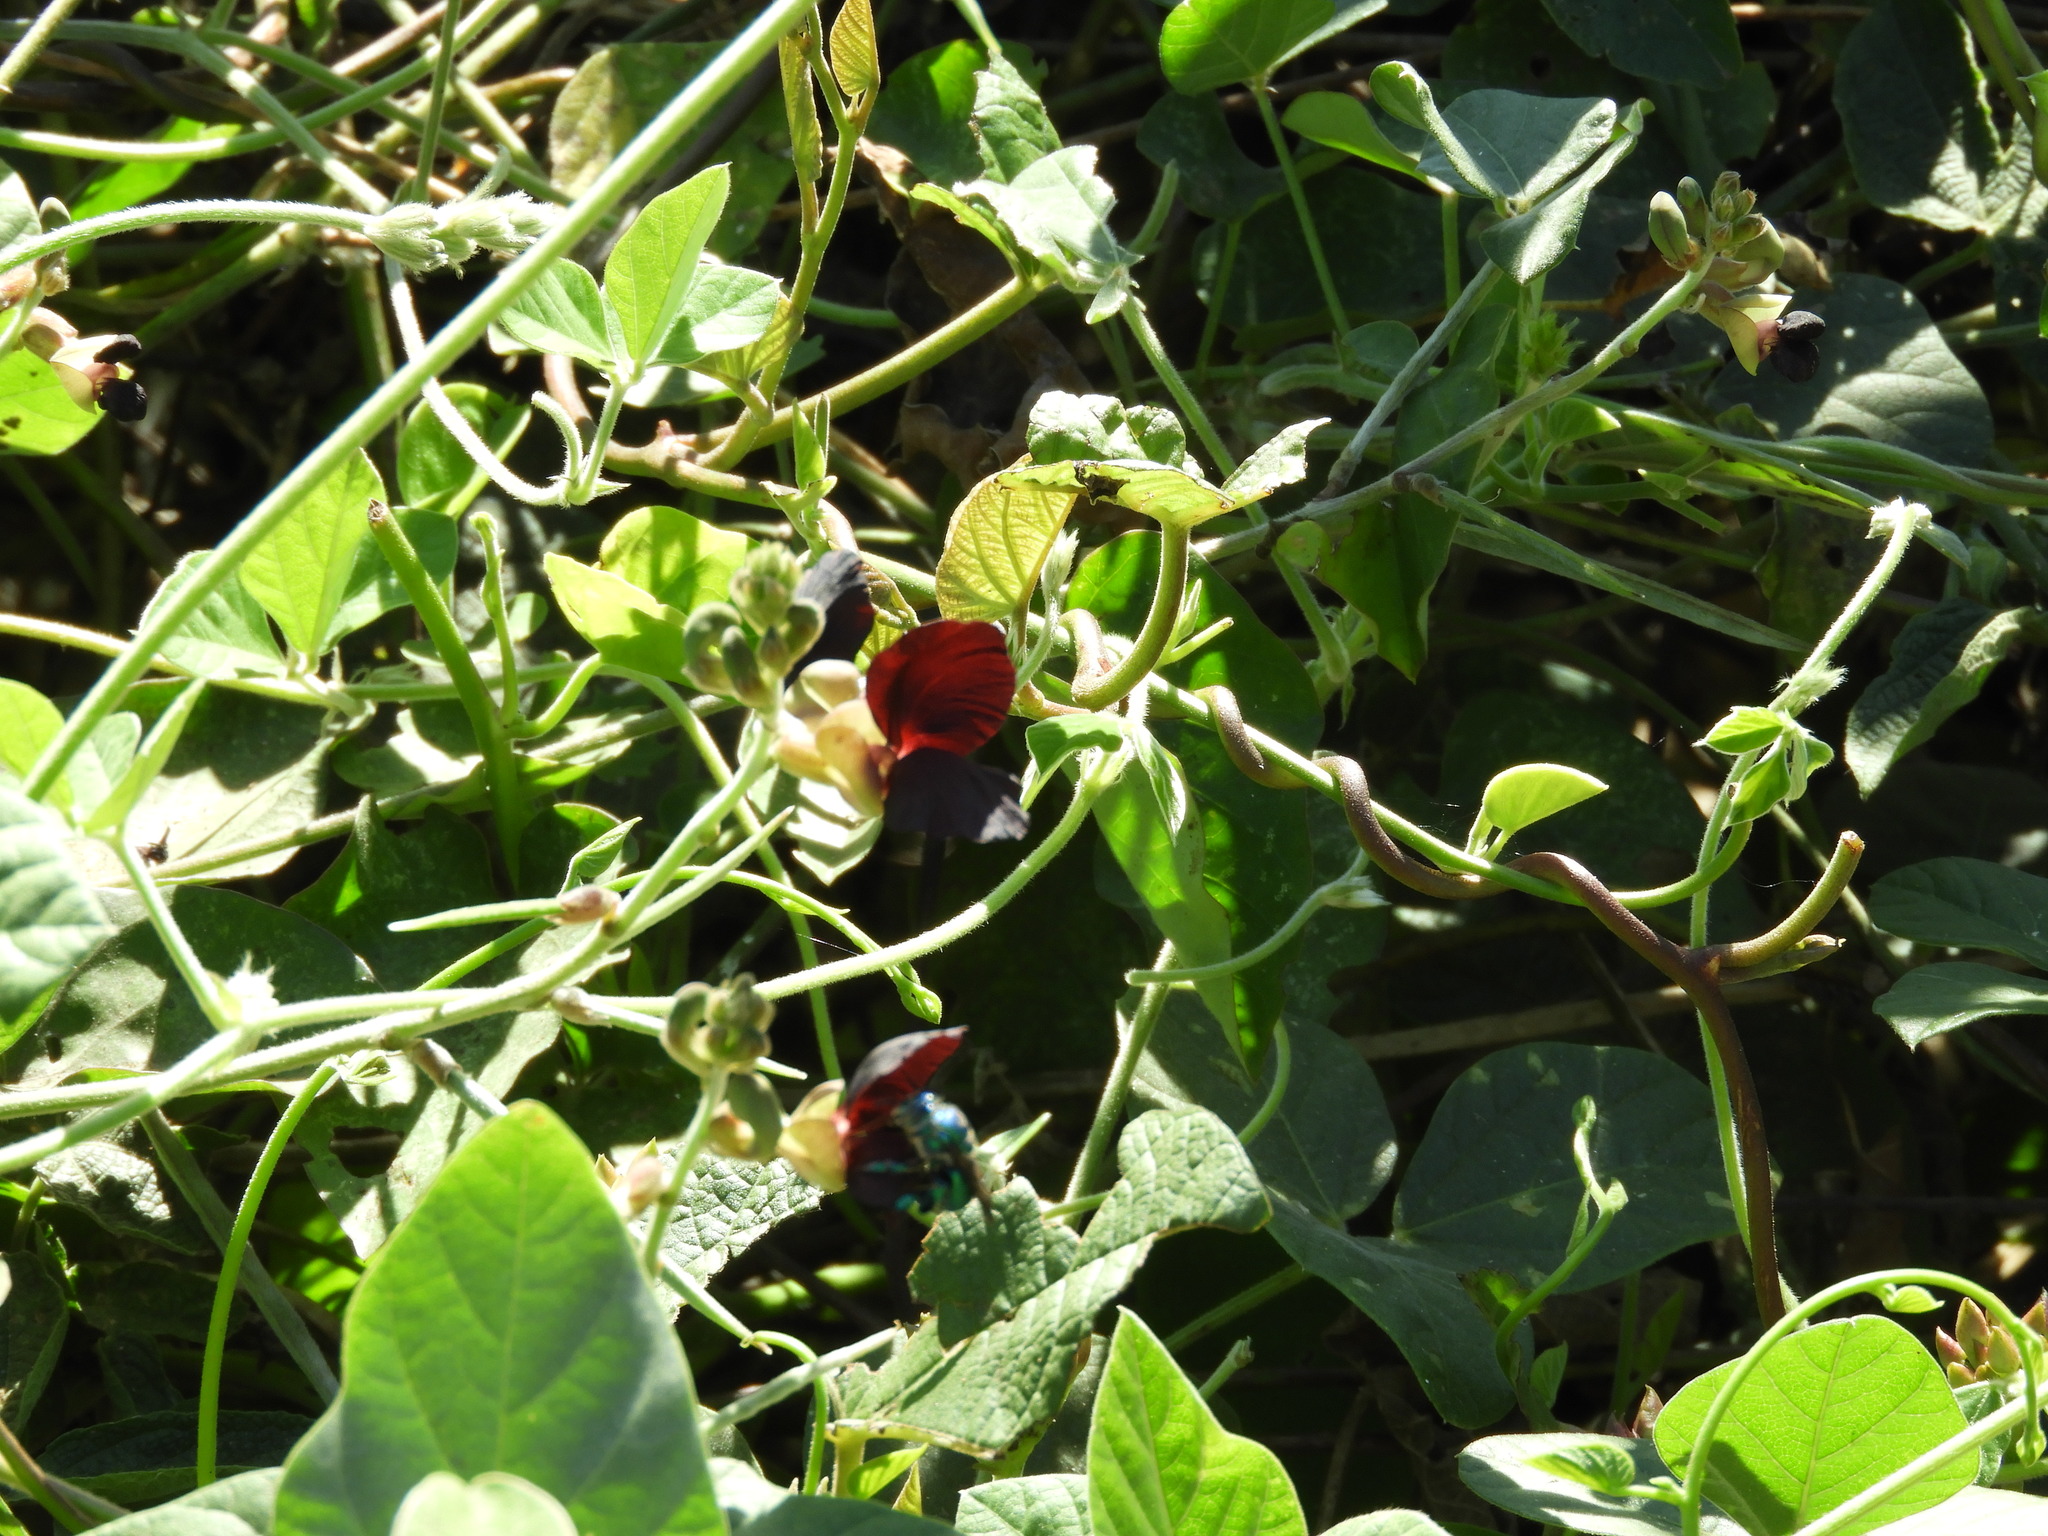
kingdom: Plantae
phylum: Tracheophyta
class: Magnoliopsida
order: Fabales
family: Fabaceae
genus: Macroptilium
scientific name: Macroptilium atropurpureum
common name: Purple bushbean
